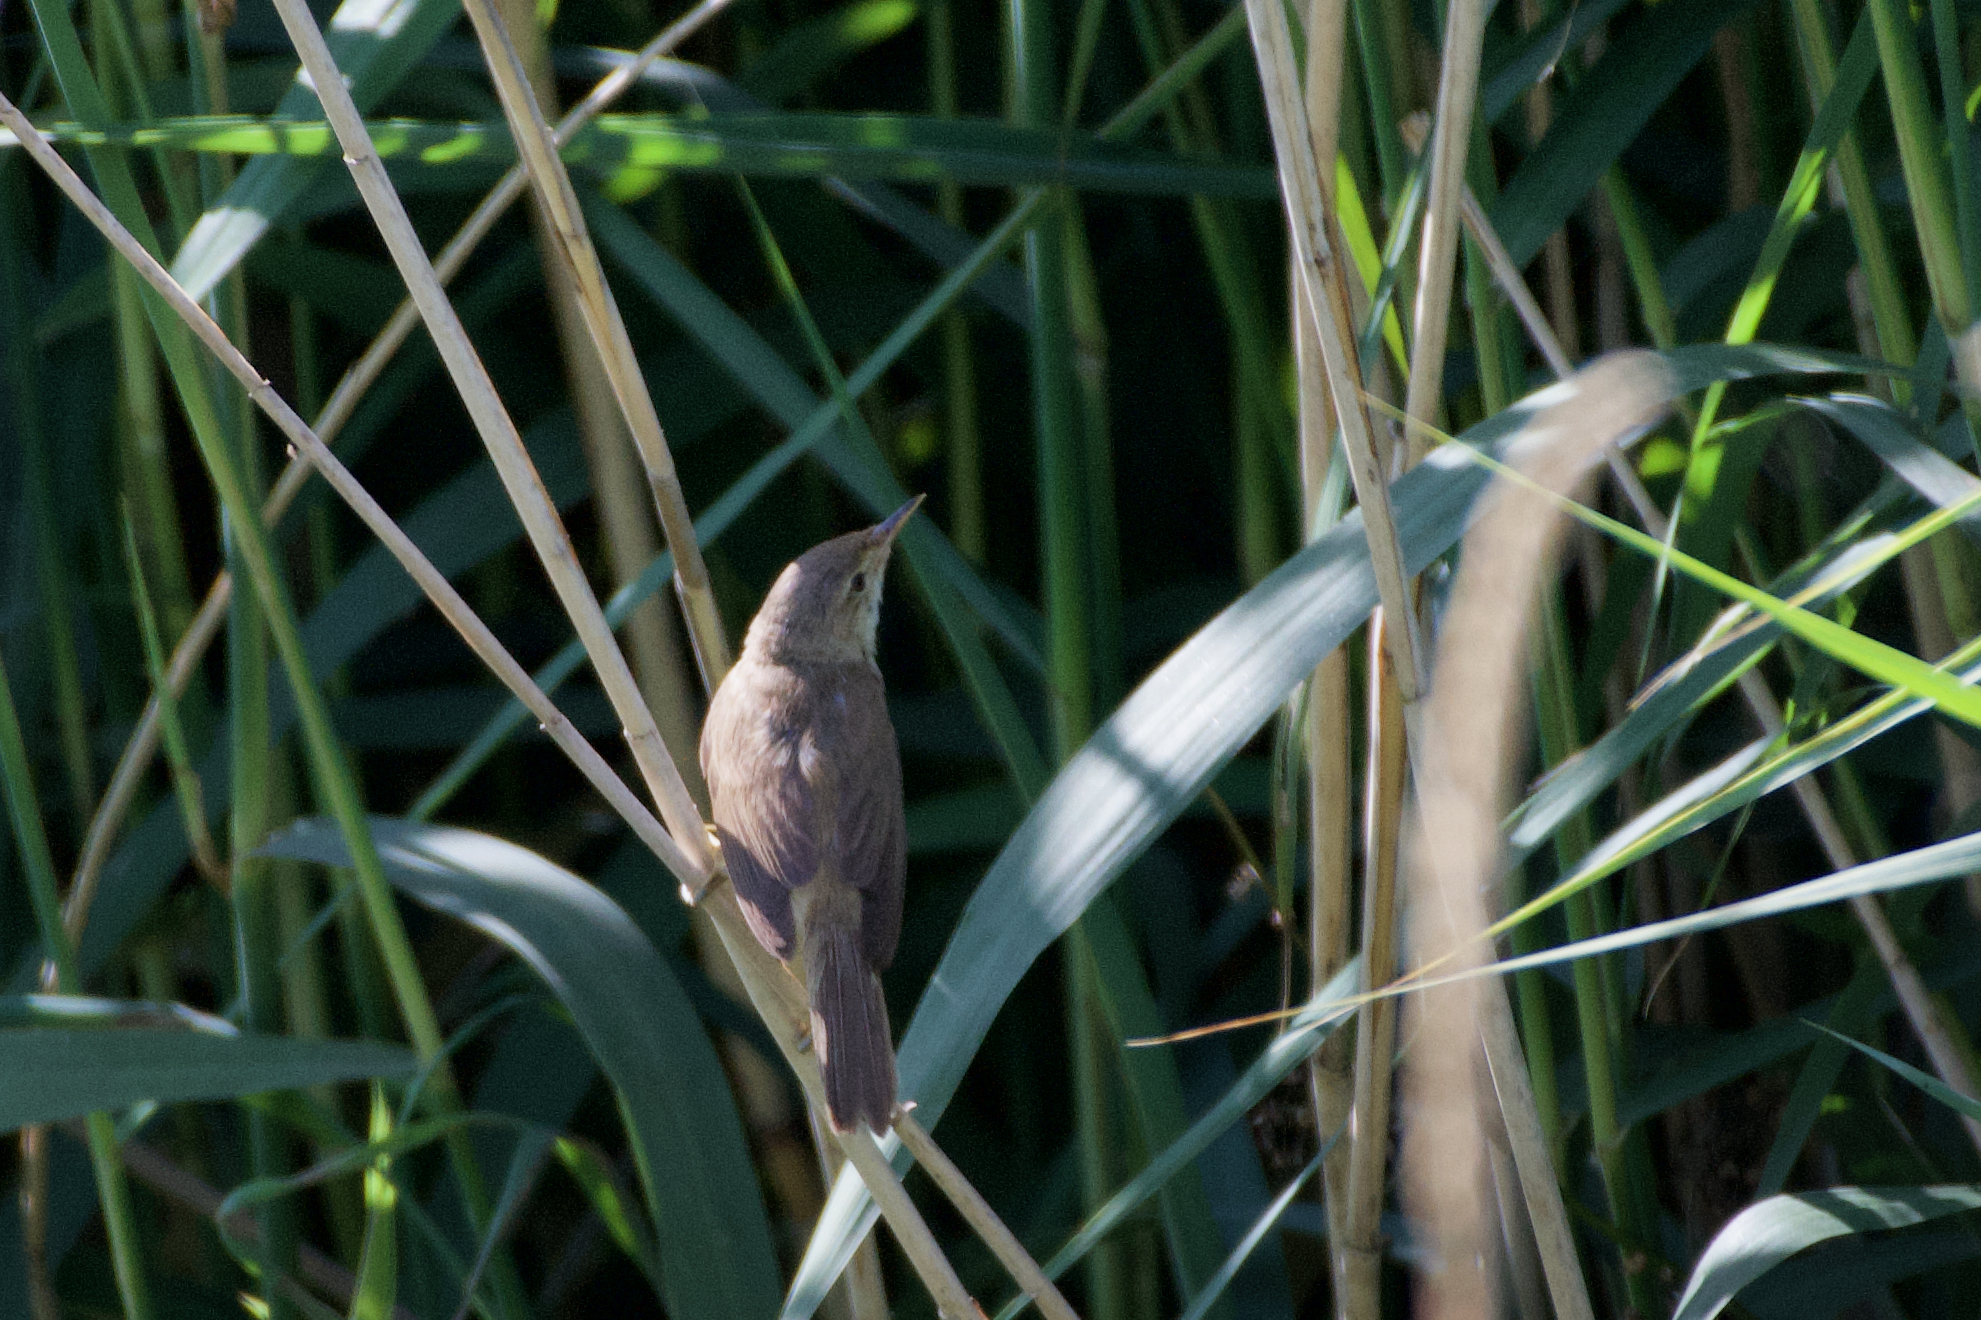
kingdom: Animalia
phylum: Chordata
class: Aves
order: Passeriformes
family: Acrocephalidae
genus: Acrocephalus
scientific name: Acrocephalus scirpaceus
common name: Eurasian reed warbler
